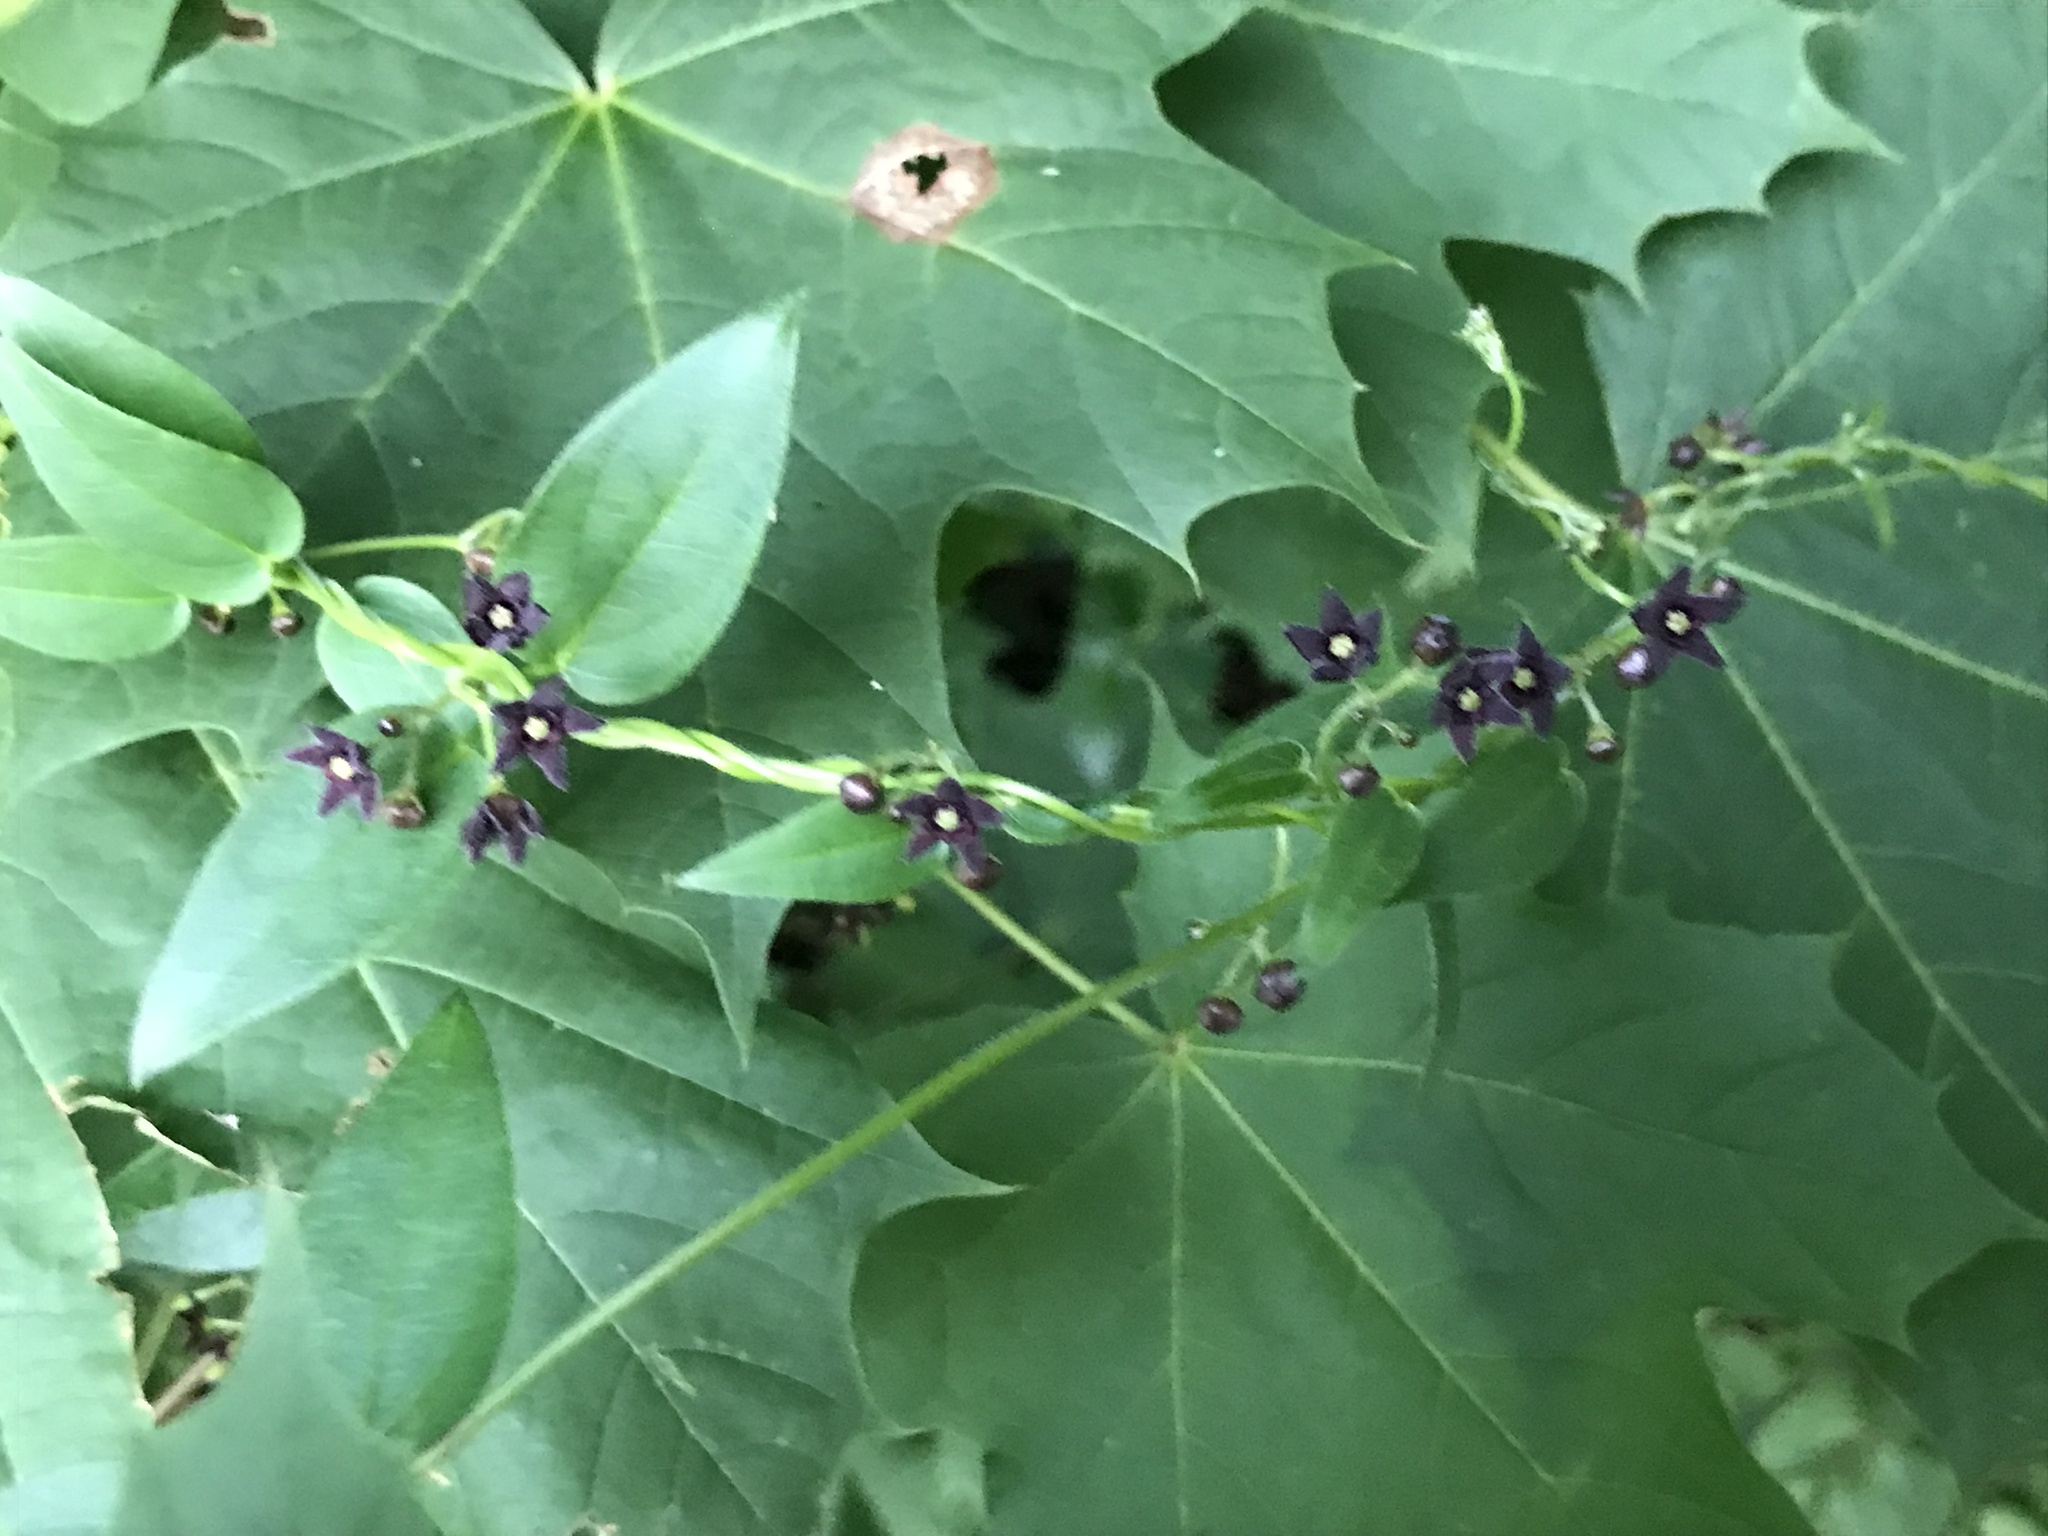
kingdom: Plantae
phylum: Tracheophyta
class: Magnoliopsida
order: Gentianales
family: Apocynaceae
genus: Vincetoxicum
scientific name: Vincetoxicum nigrum
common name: Black swallow-wort
